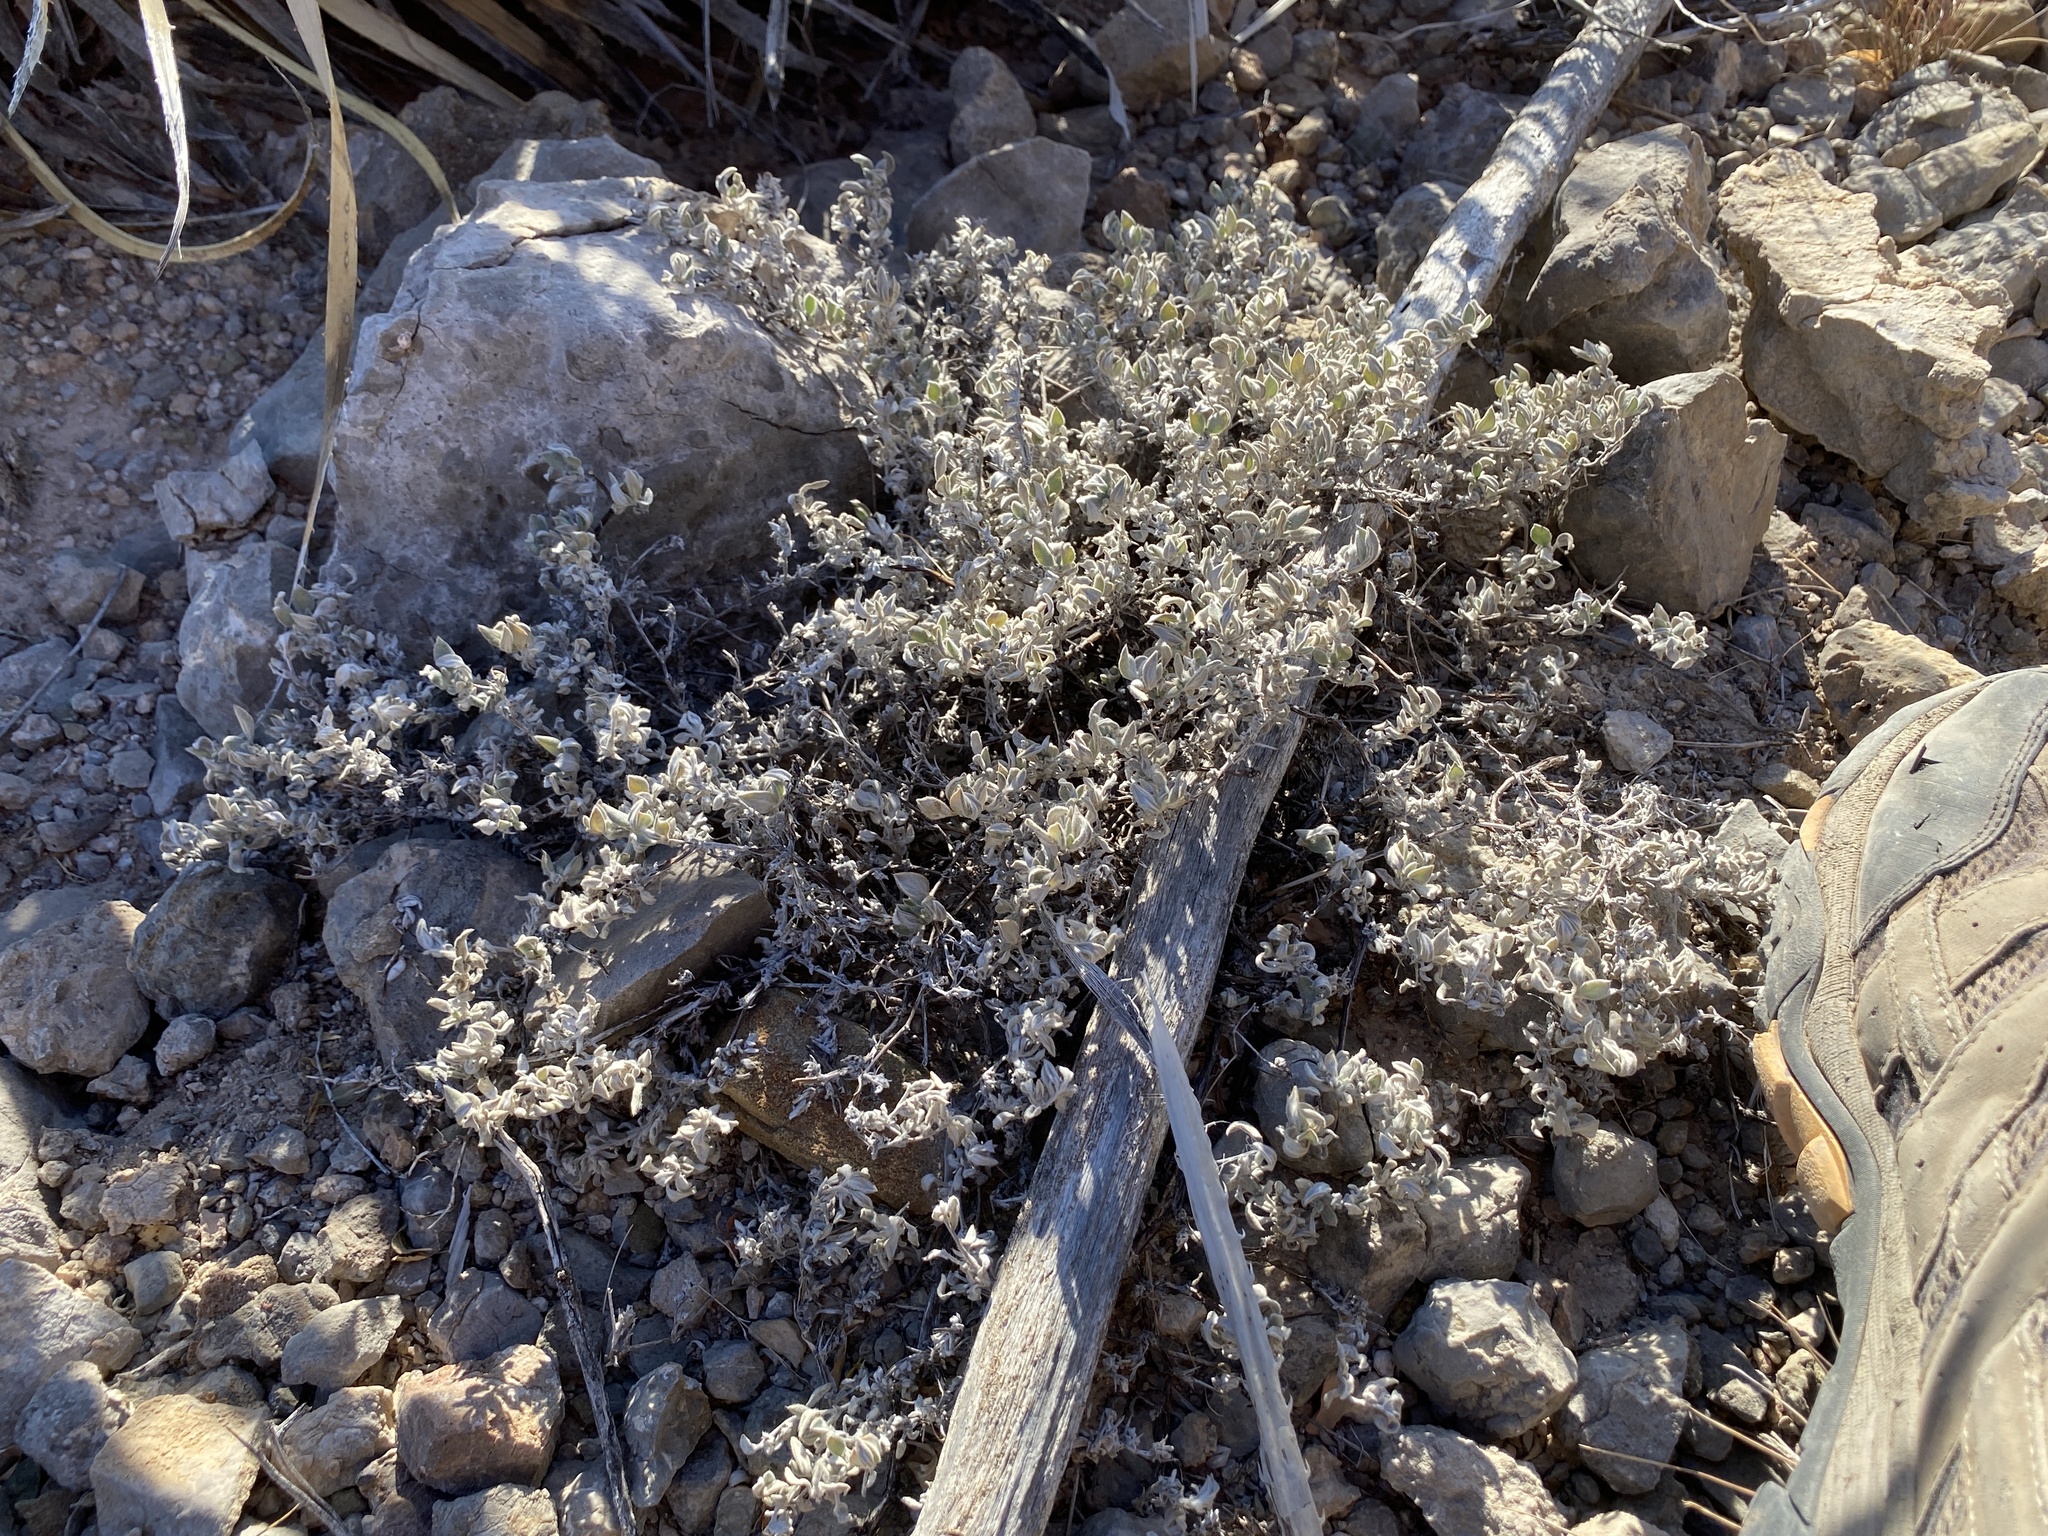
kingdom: Plantae
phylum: Tracheophyta
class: Magnoliopsida
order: Boraginales
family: Ehretiaceae
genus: Tiquilia
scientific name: Tiquilia canescens
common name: Hairy tiquilia
